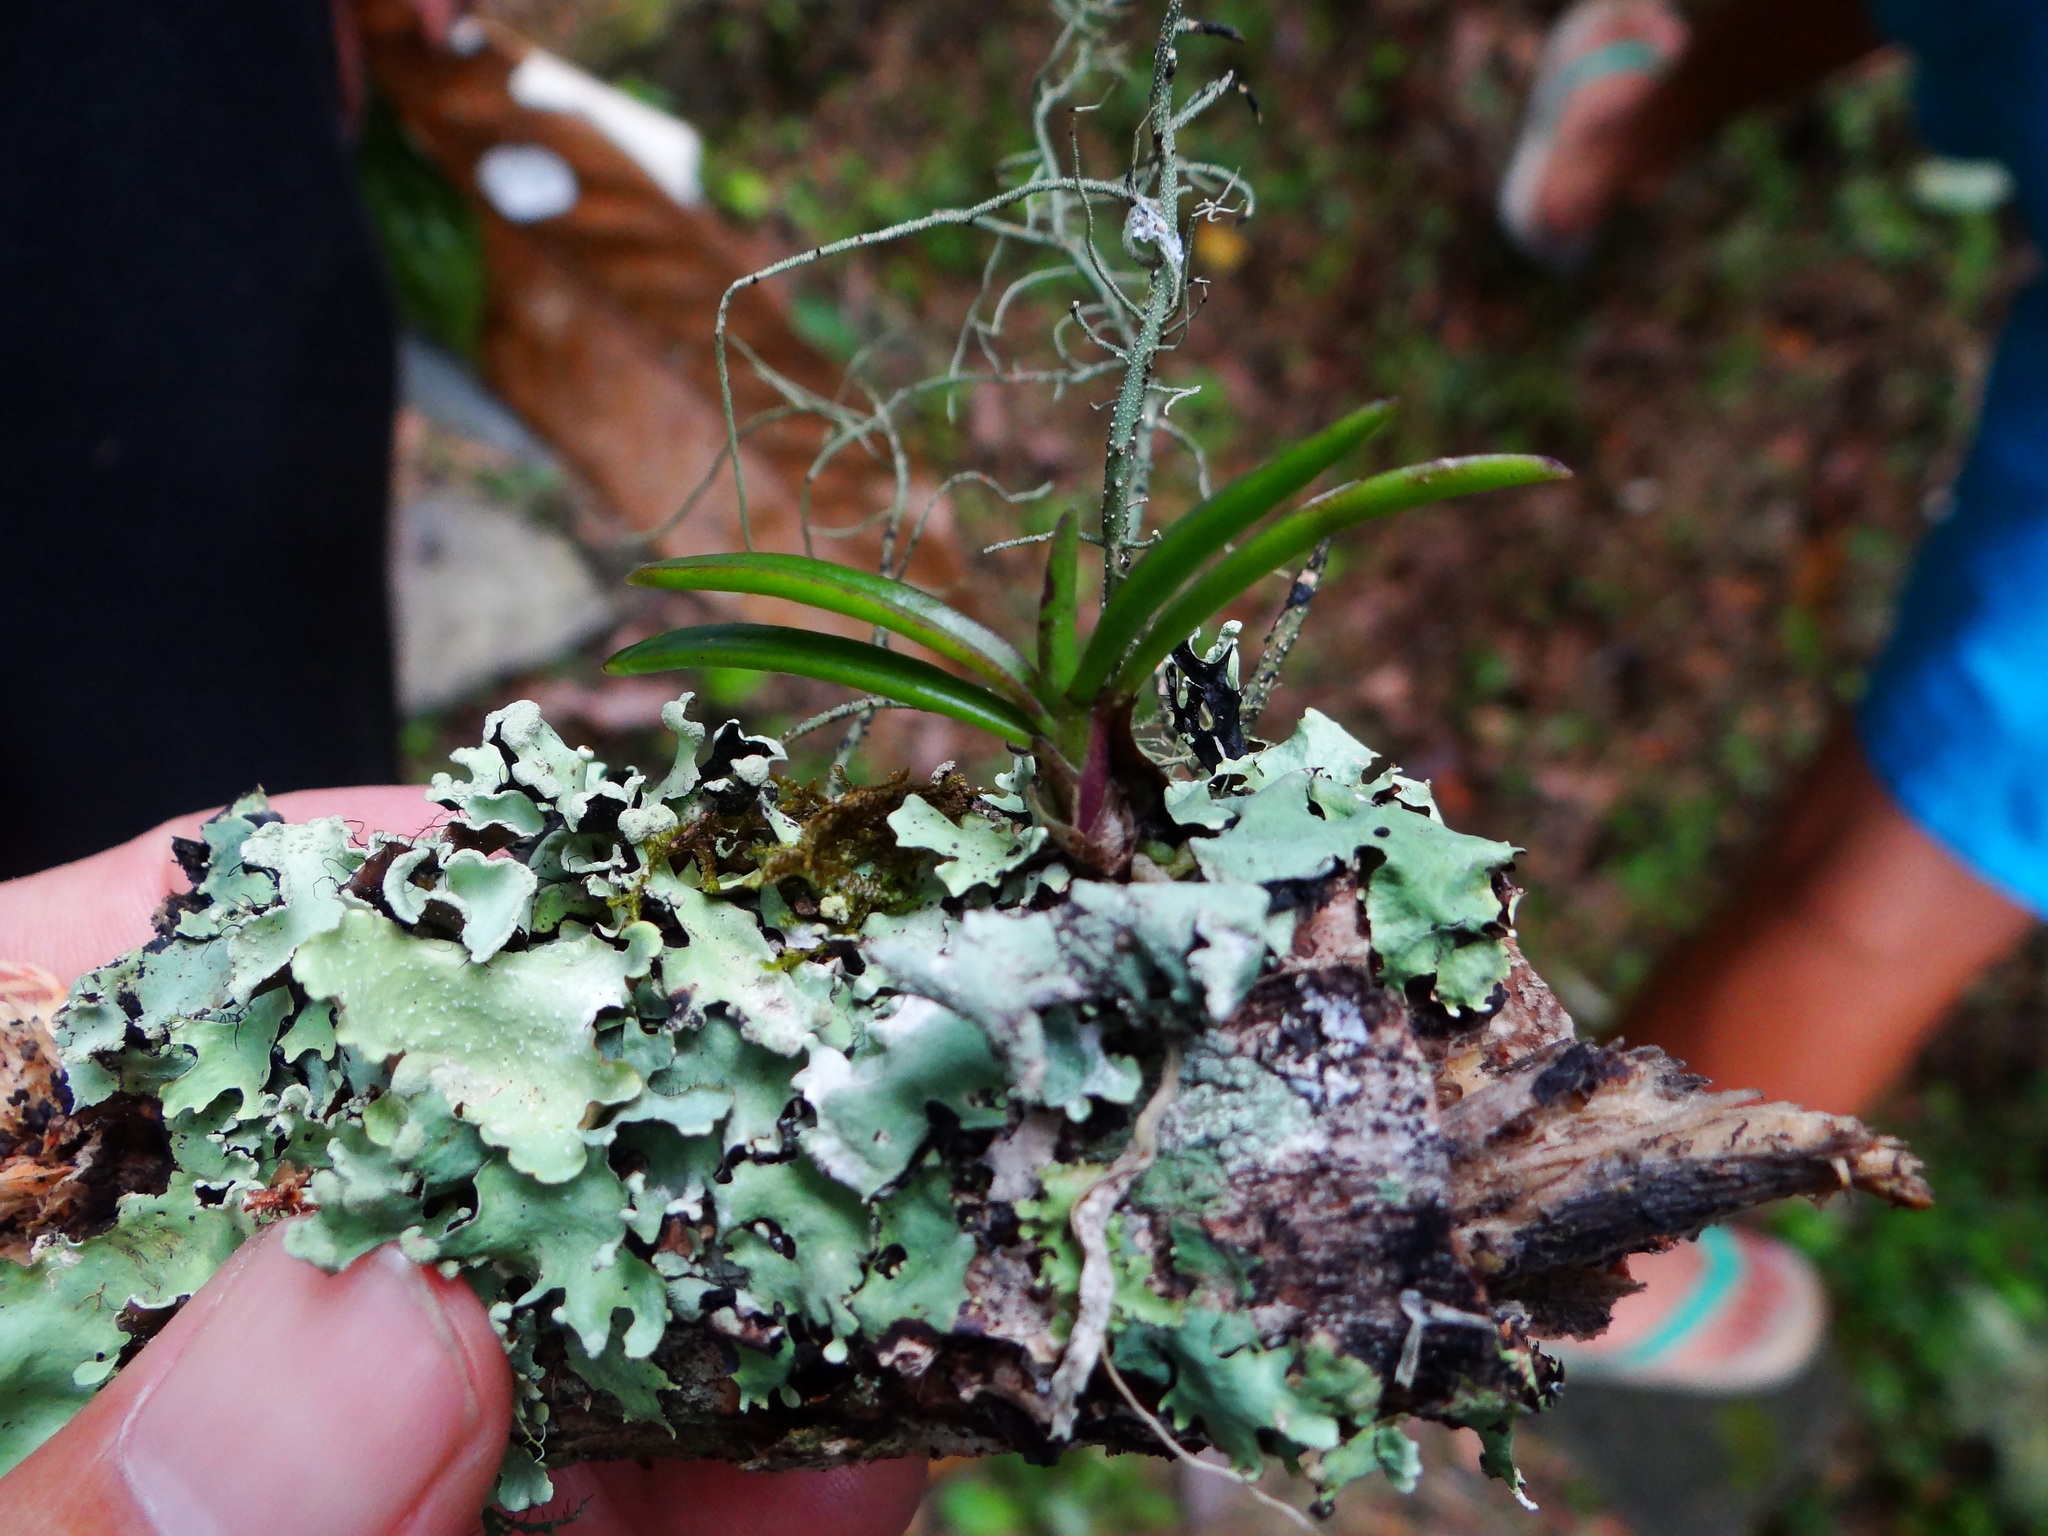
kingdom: Plantae
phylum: Tracheophyta
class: Liliopsida
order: Asparagales
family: Orchidaceae
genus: Holcoglossum
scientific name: Holcoglossum pumilum
